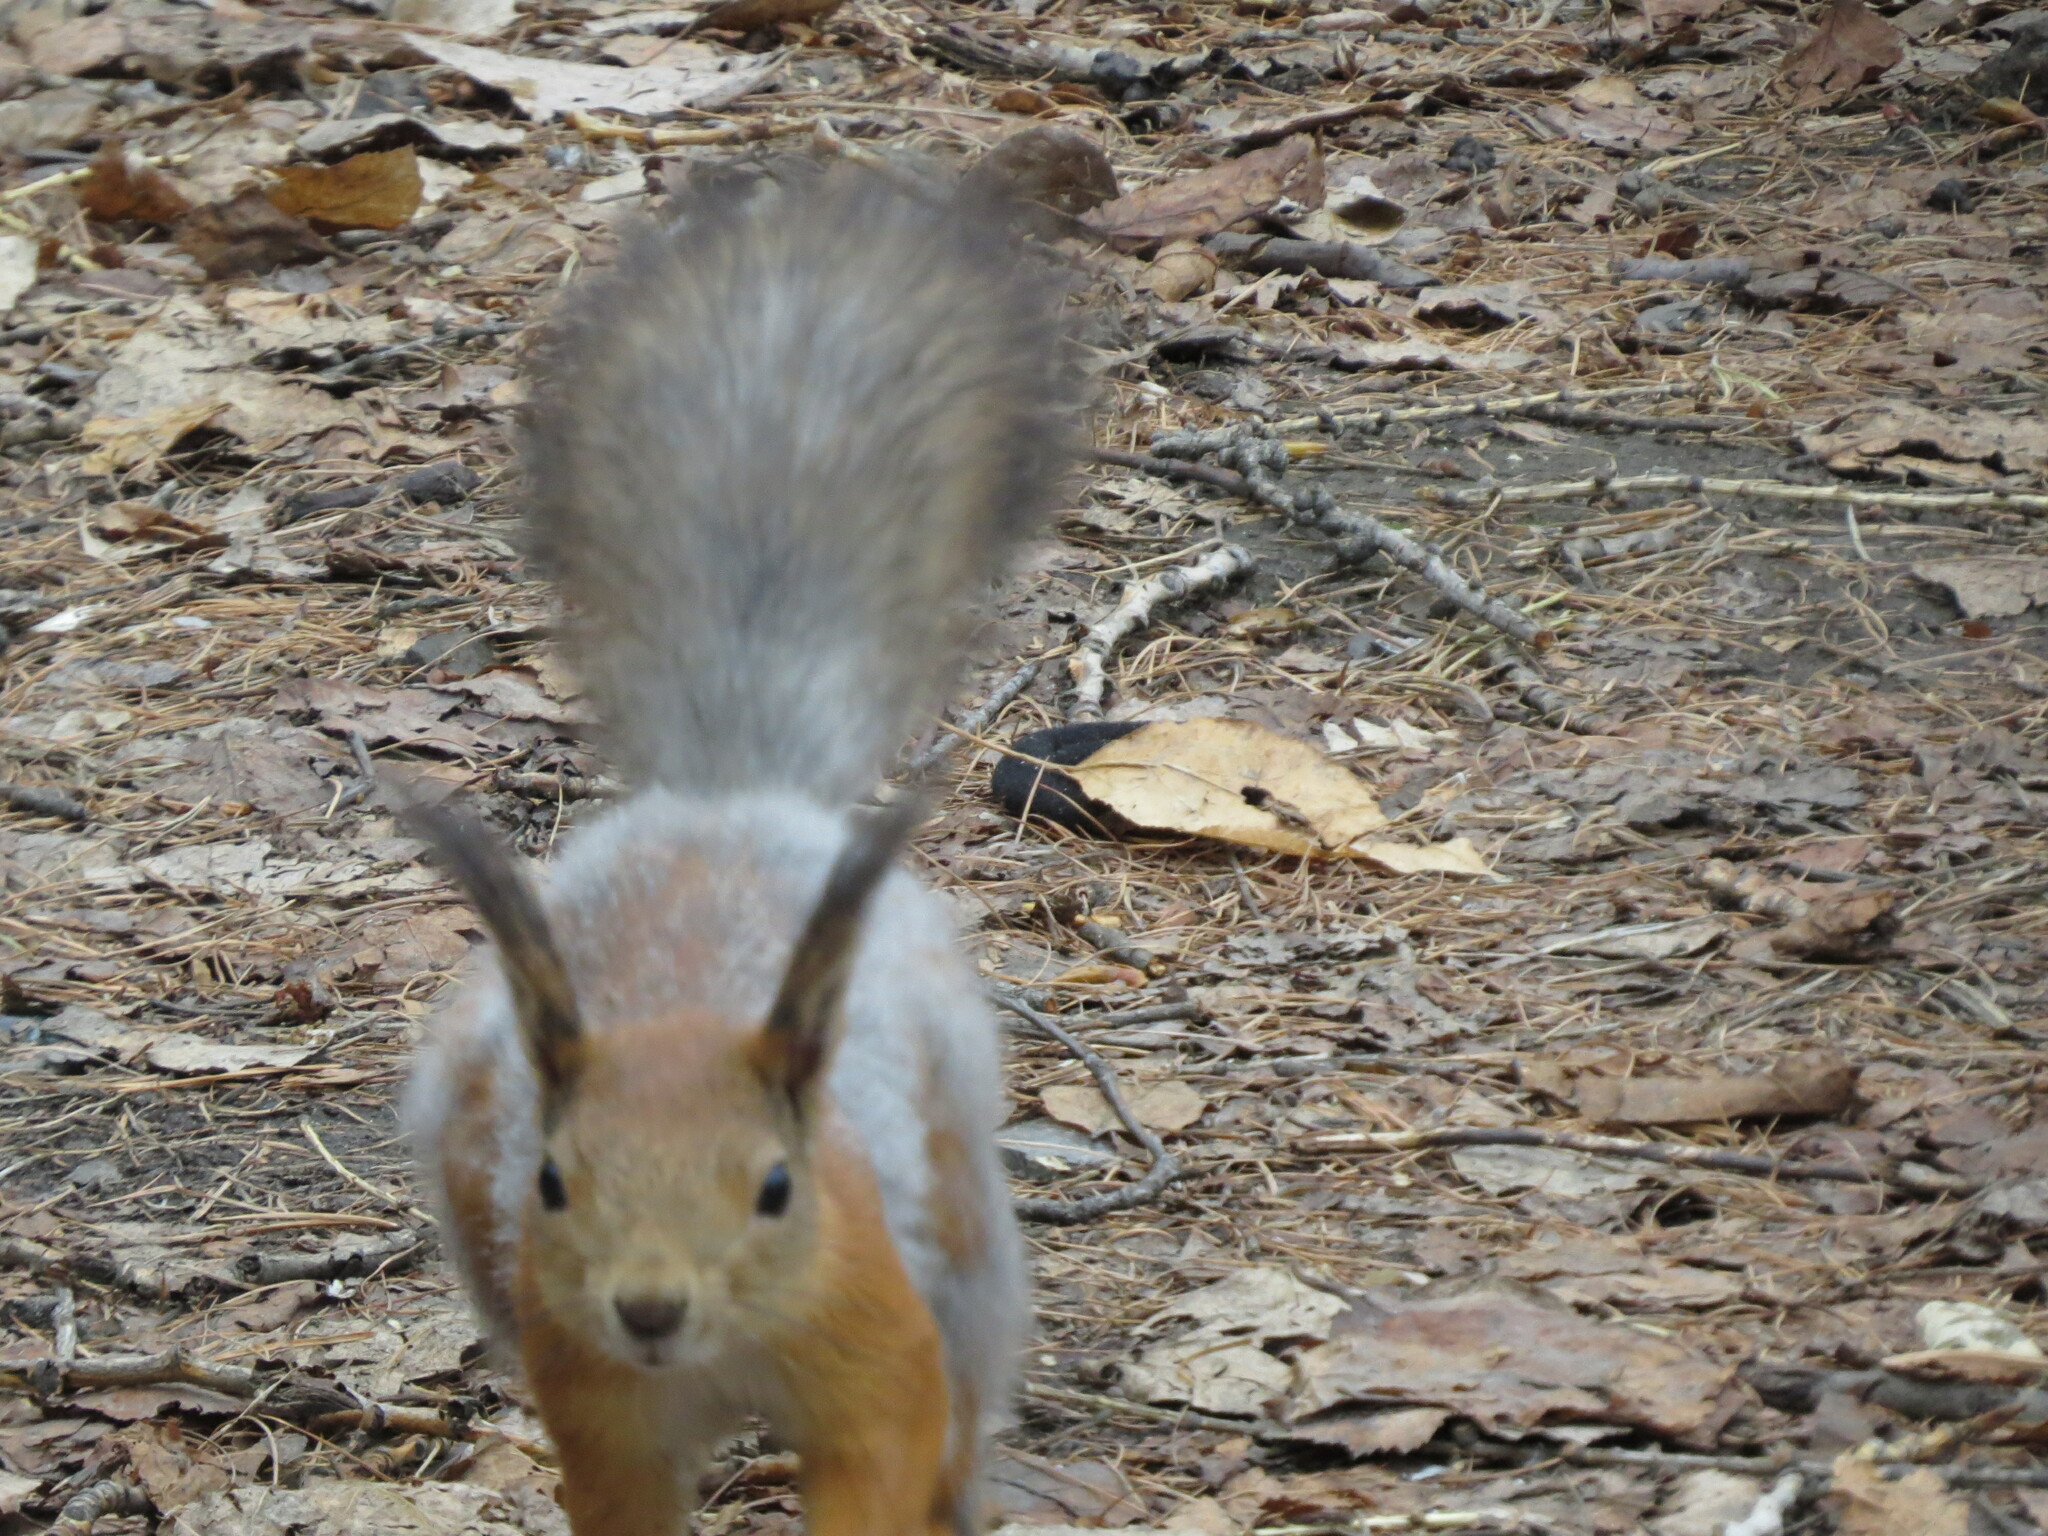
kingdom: Animalia
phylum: Chordata
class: Mammalia
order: Rodentia
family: Sciuridae
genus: Sciurus
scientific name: Sciurus vulgaris
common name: Eurasian red squirrel
